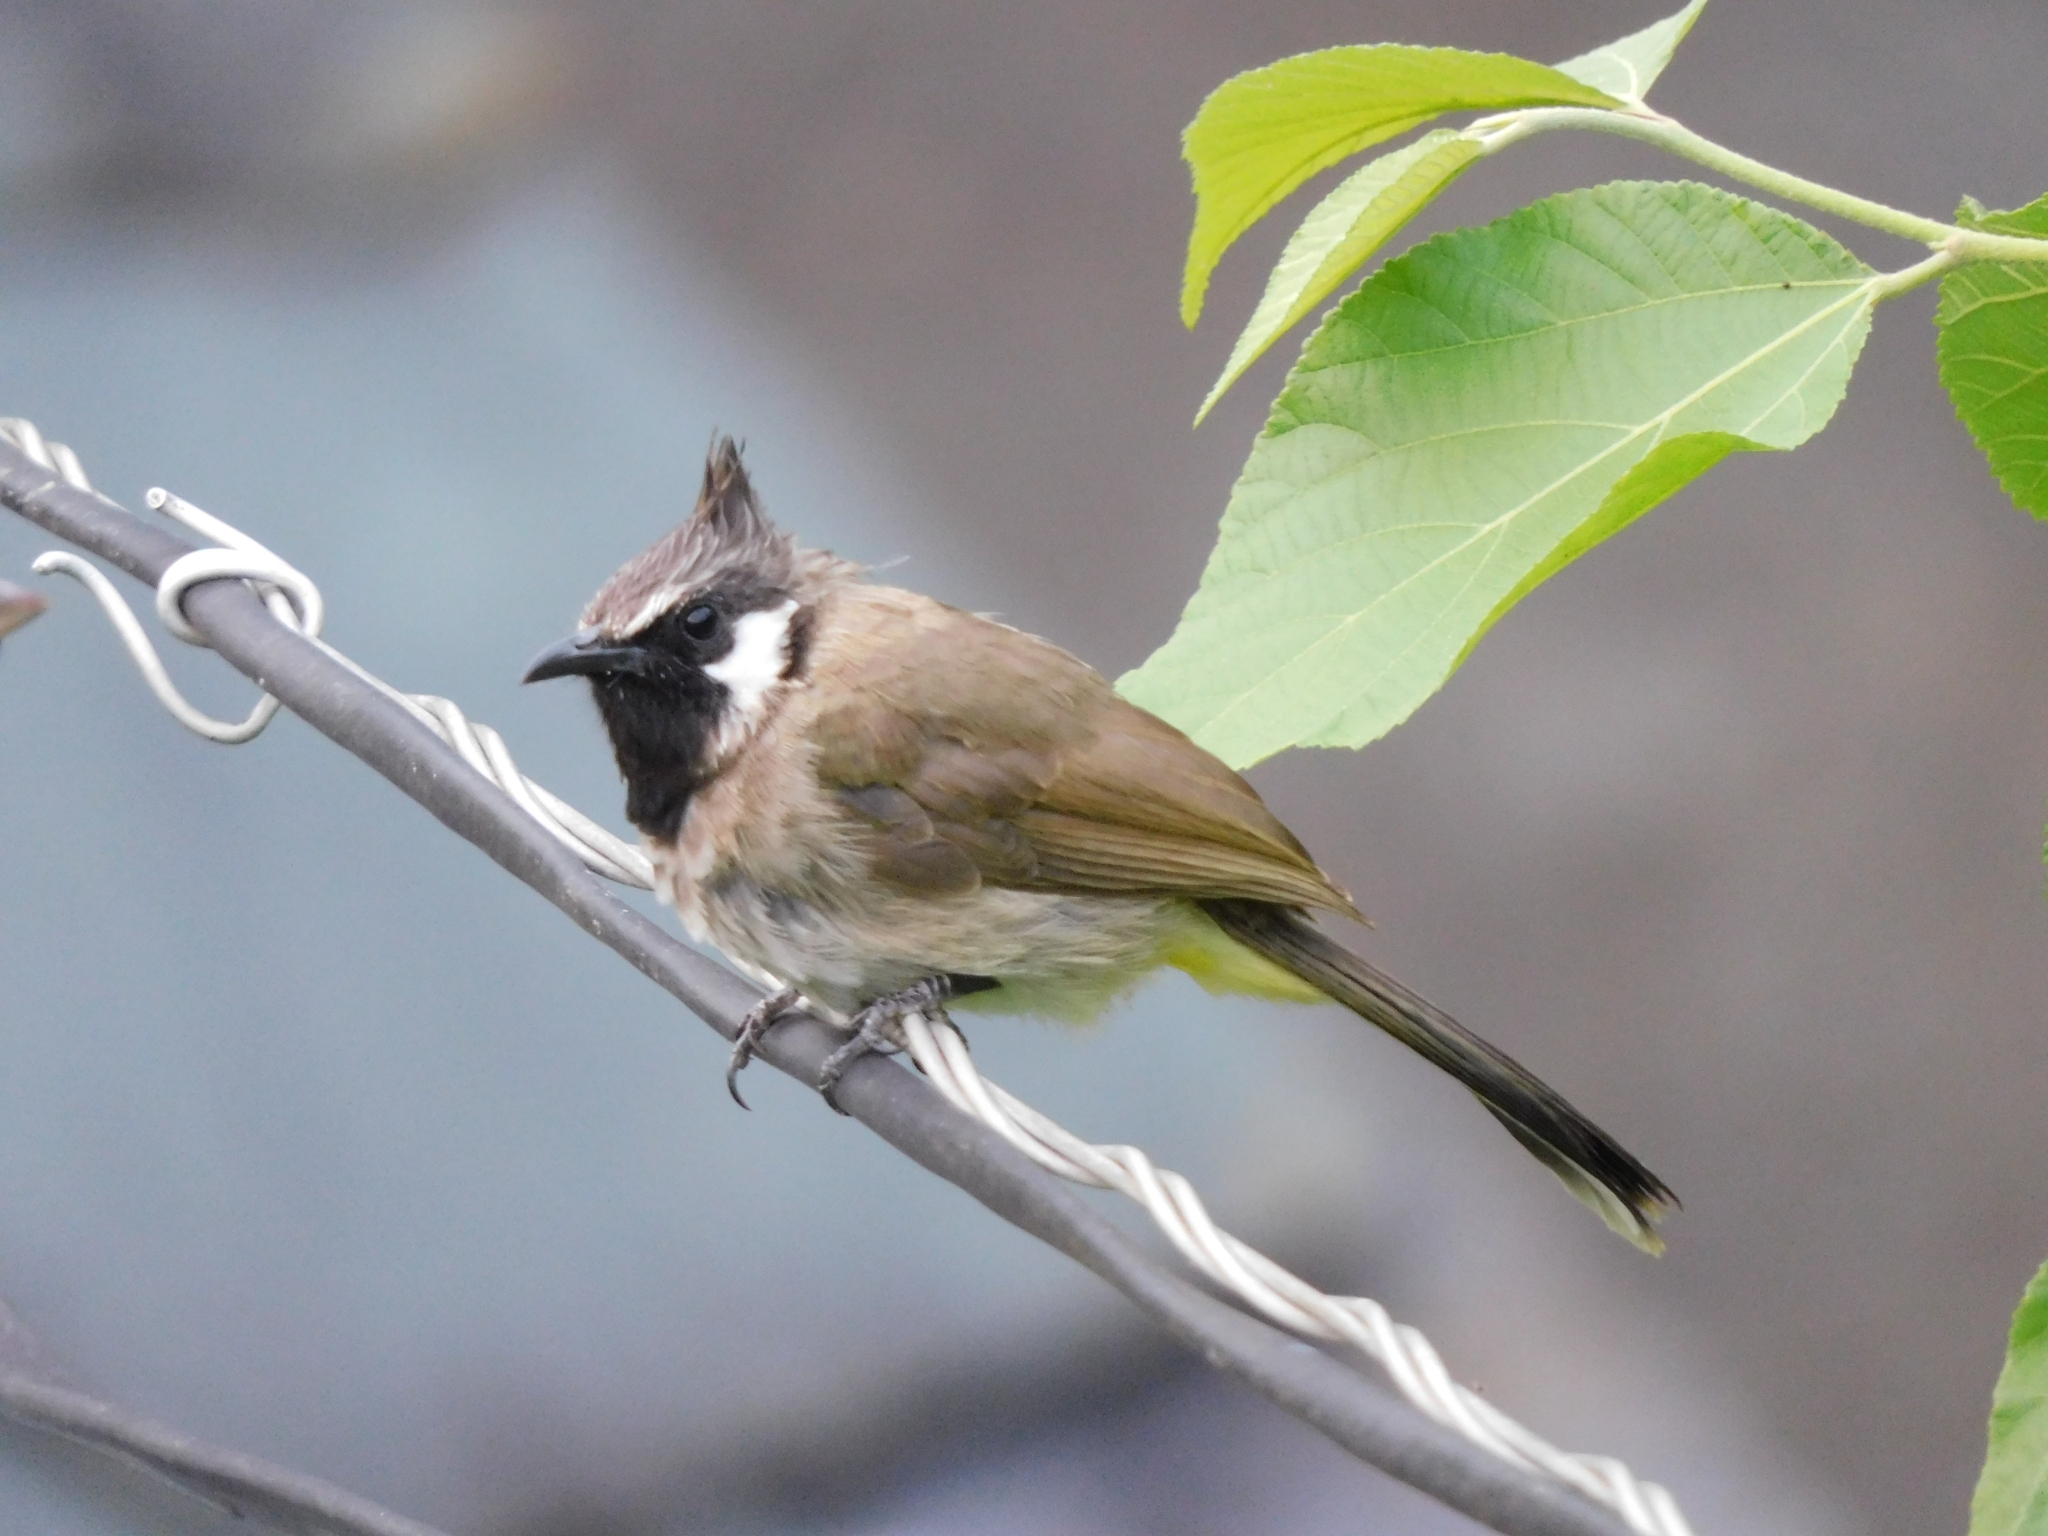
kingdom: Animalia
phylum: Chordata
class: Aves
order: Passeriformes
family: Pycnonotidae
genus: Pycnonotus
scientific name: Pycnonotus leucogenys
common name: Himalayan bulbul
